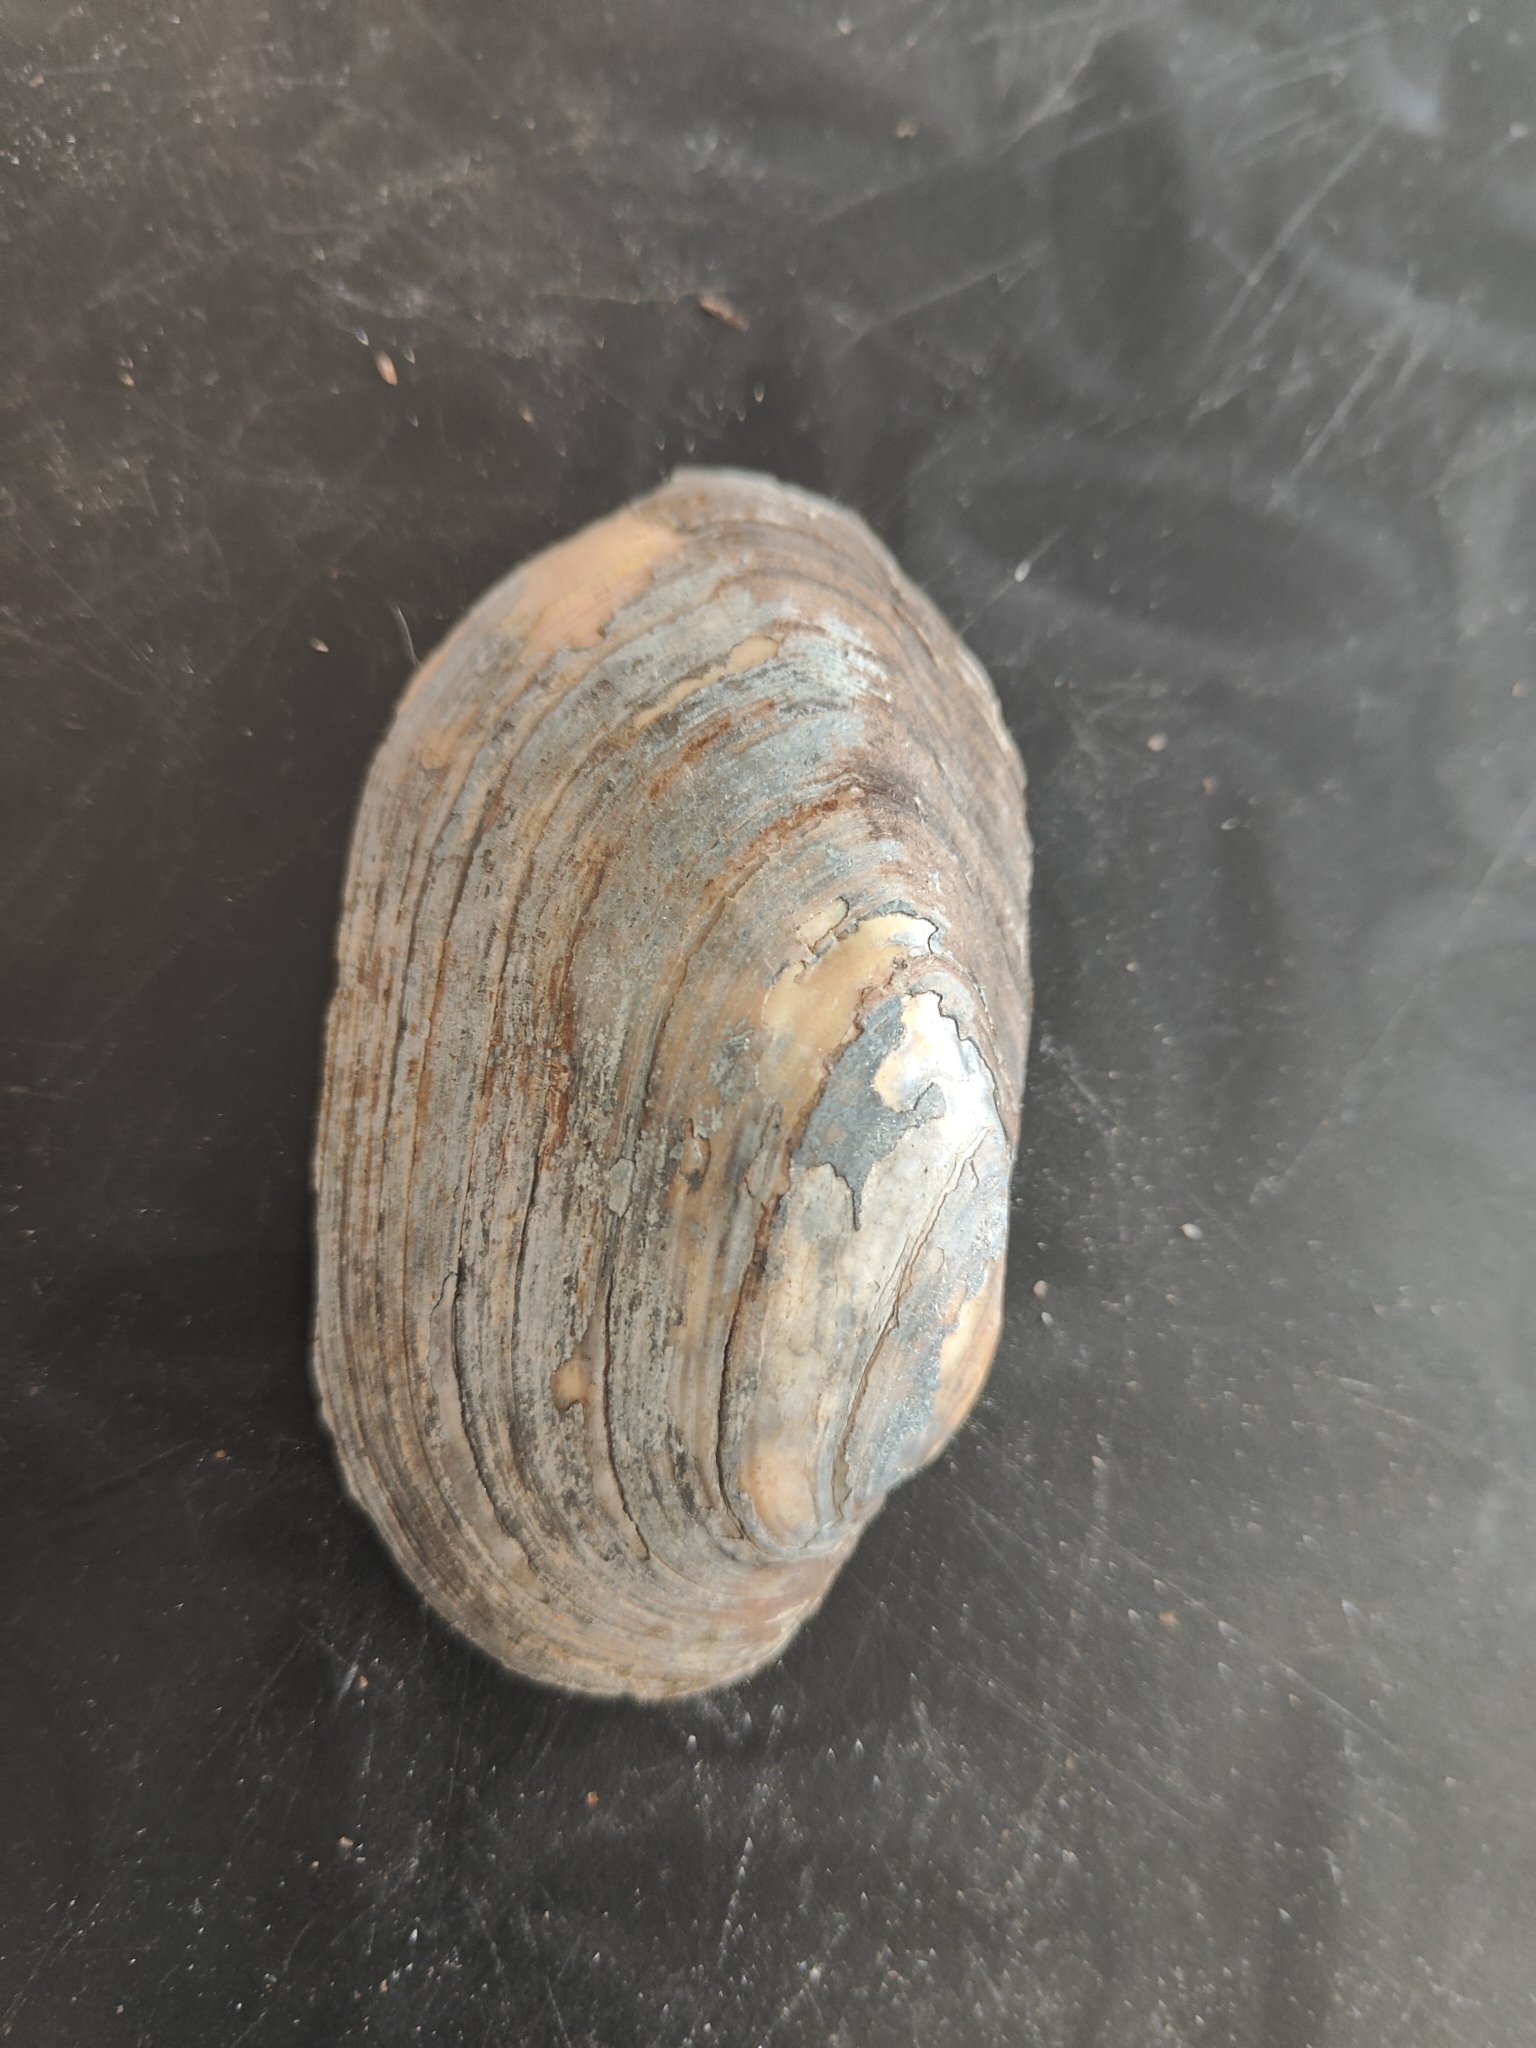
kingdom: Animalia
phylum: Mollusca
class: Bivalvia
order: Unionida
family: Unionidae
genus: Lampsilis
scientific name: Lampsilis siliquoidea
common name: Fatmucket
